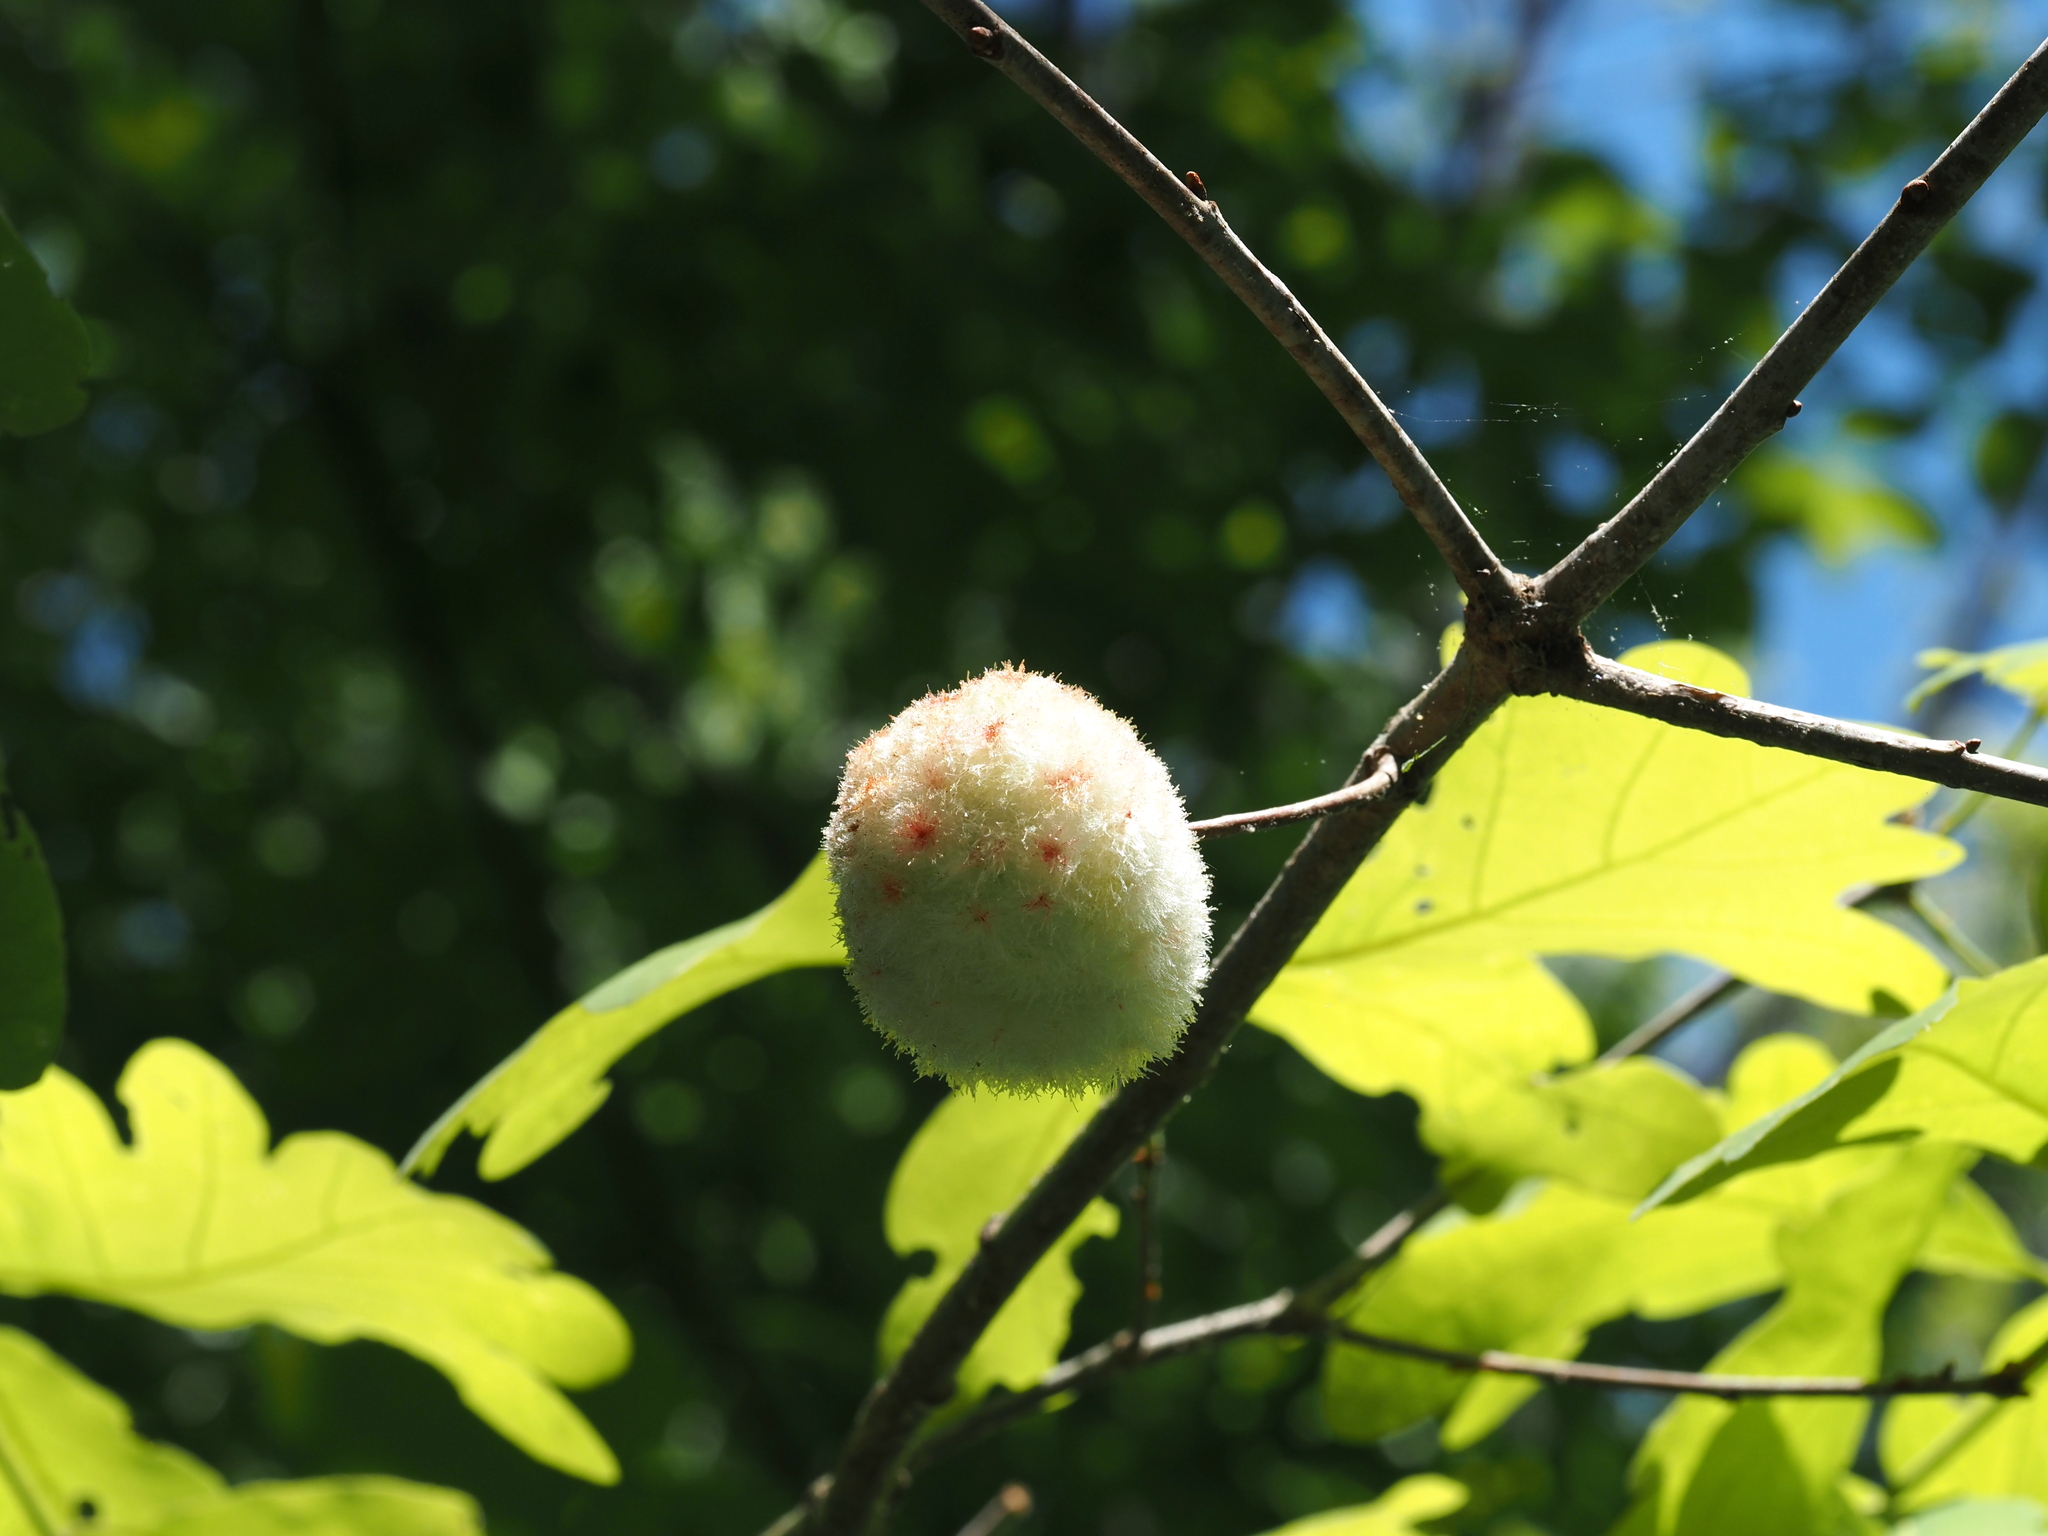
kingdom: Animalia
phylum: Arthropoda
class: Insecta
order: Hymenoptera
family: Cynipidae
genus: Callirhytis
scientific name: Callirhytis
